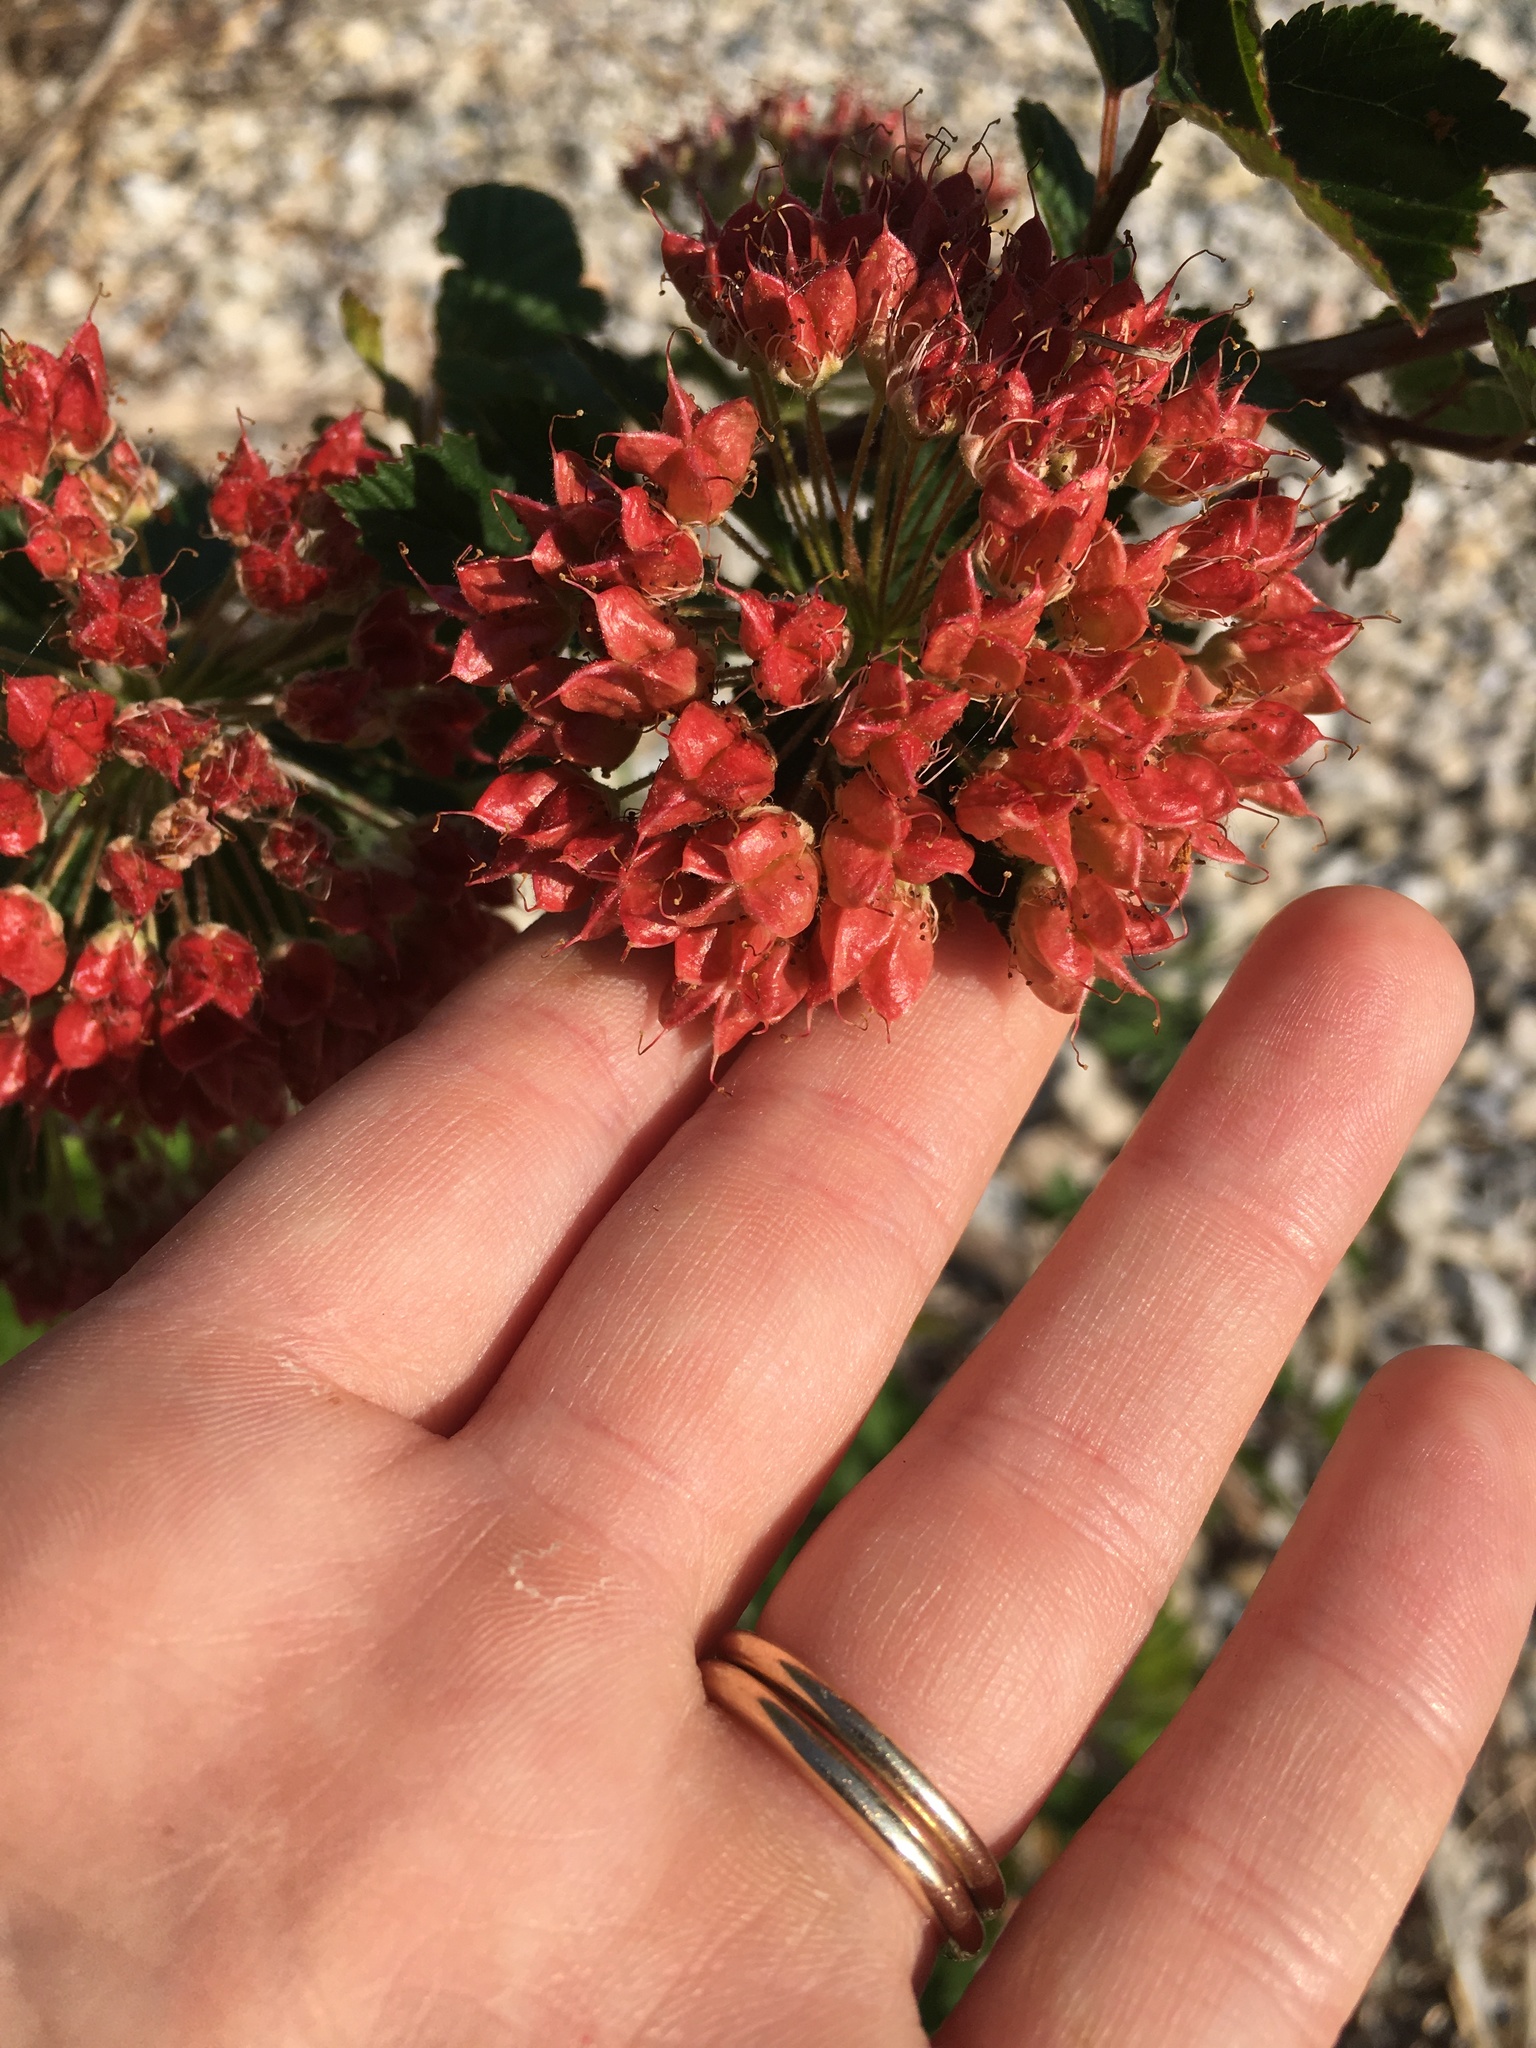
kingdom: Plantae
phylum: Tracheophyta
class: Magnoliopsida
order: Rosales
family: Rosaceae
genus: Physocarpus
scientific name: Physocarpus opulifolius
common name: Ninebark
